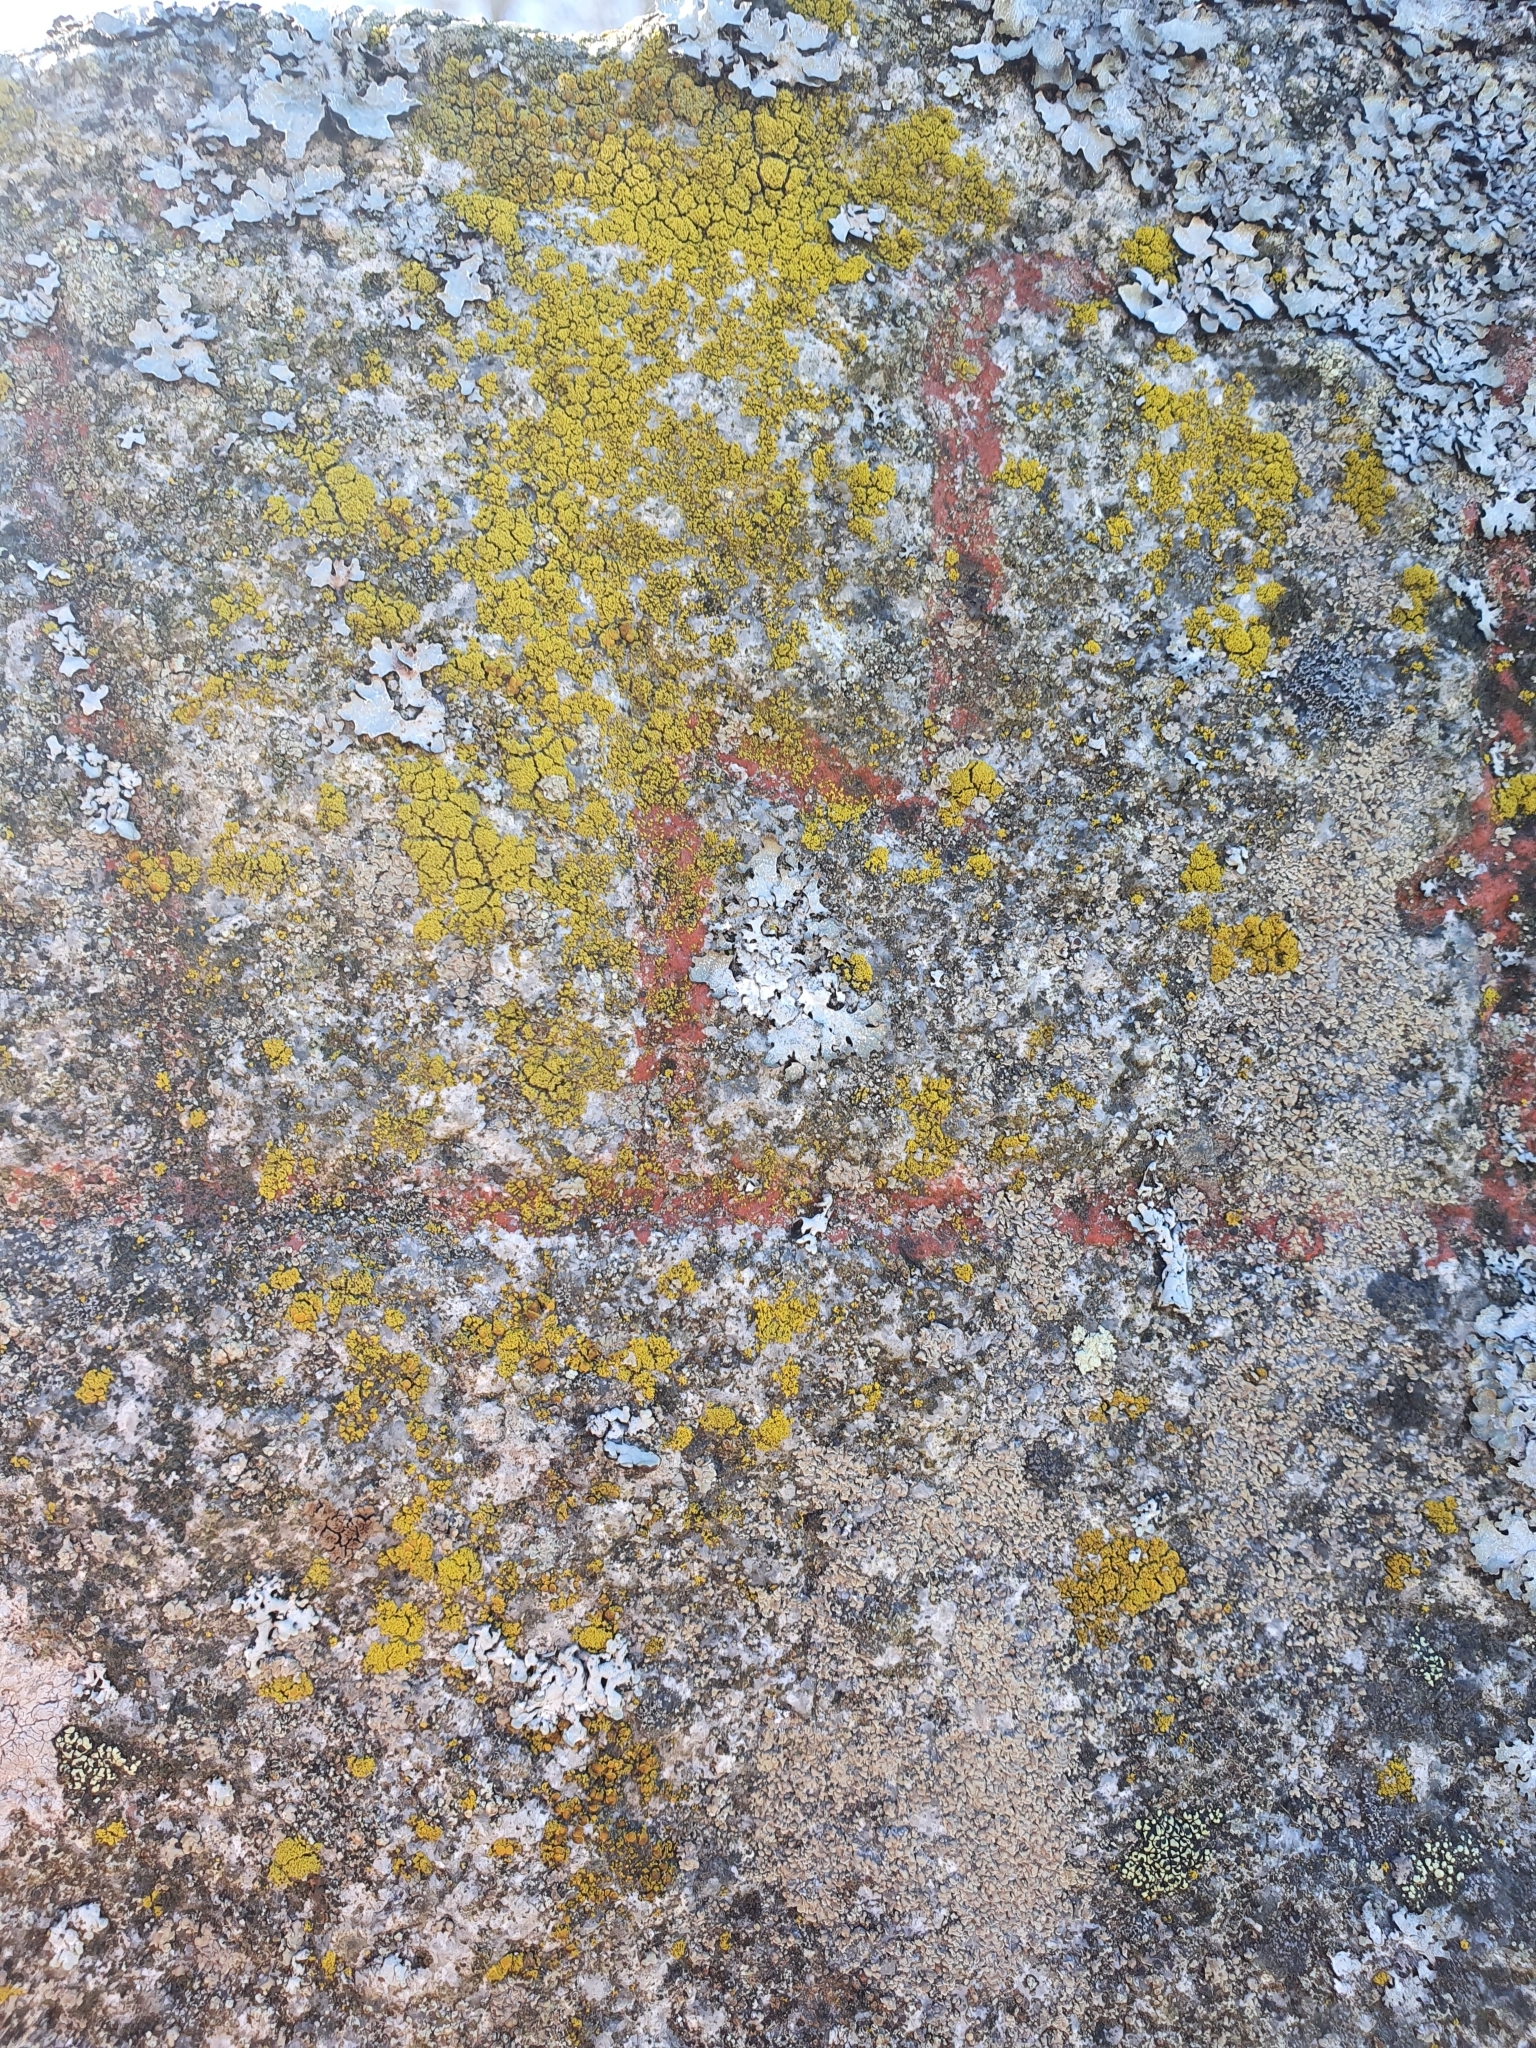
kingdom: Fungi
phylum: Ascomycota
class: Candelariomycetes
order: Candelariales
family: Candelariaceae
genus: Candelariella
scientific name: Candelariella coralliza
